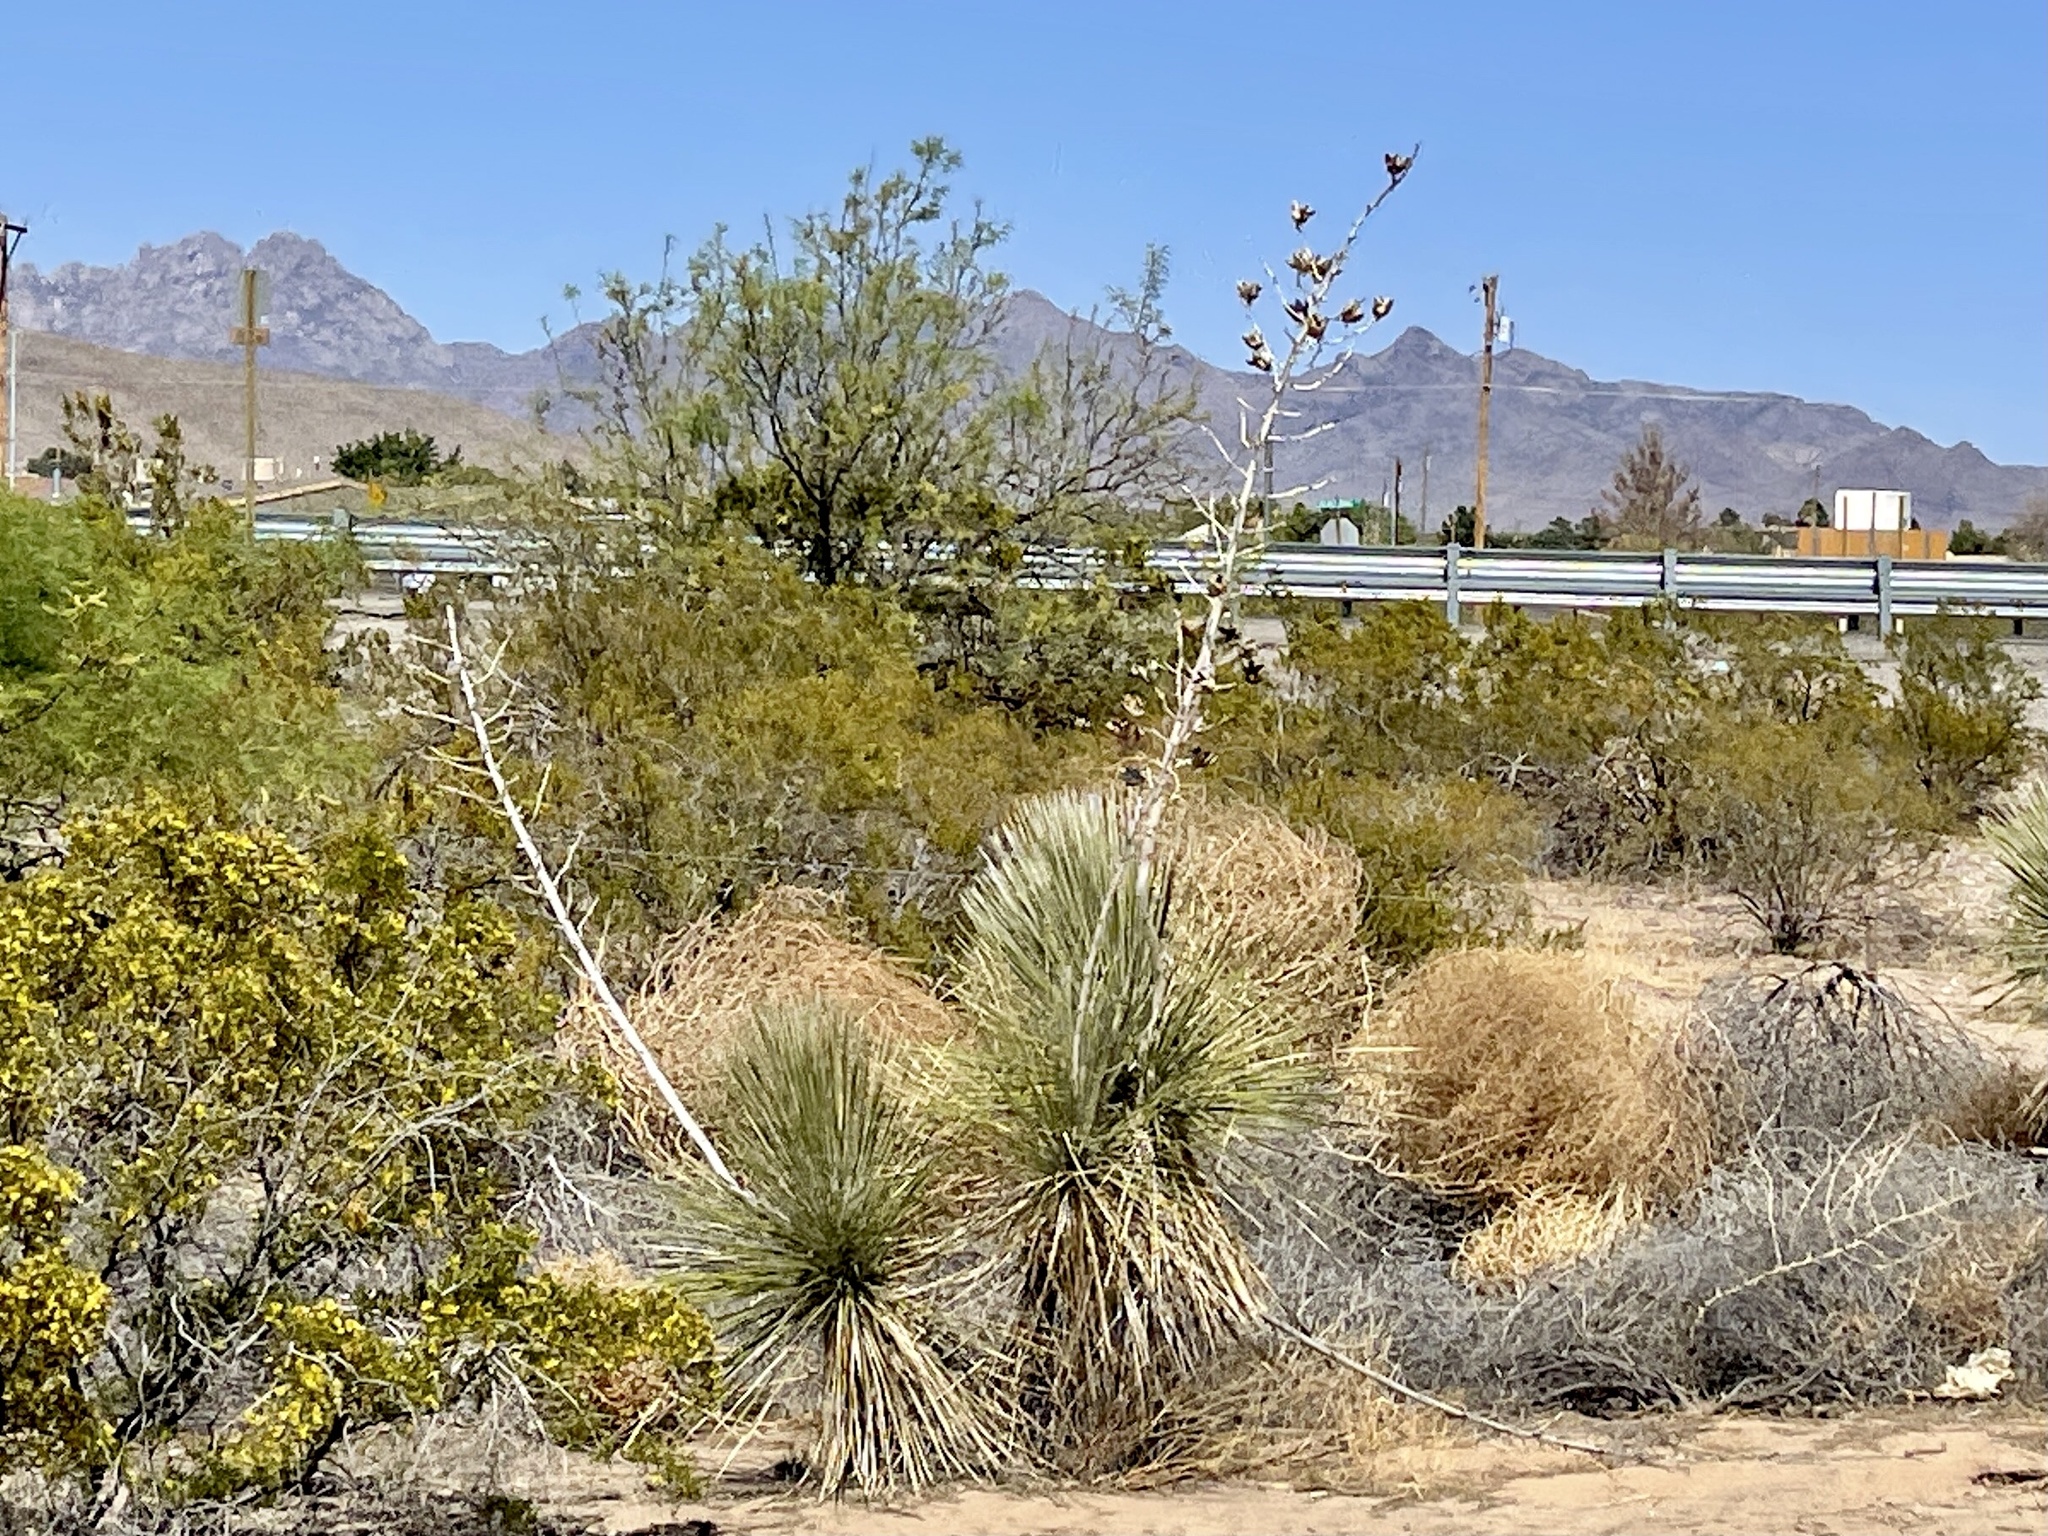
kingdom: Plantae
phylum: Tracheophyta
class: Liliopsida
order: Asparagales
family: Asparagaceae
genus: Yucca
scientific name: Yucca elata
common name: Palmella
